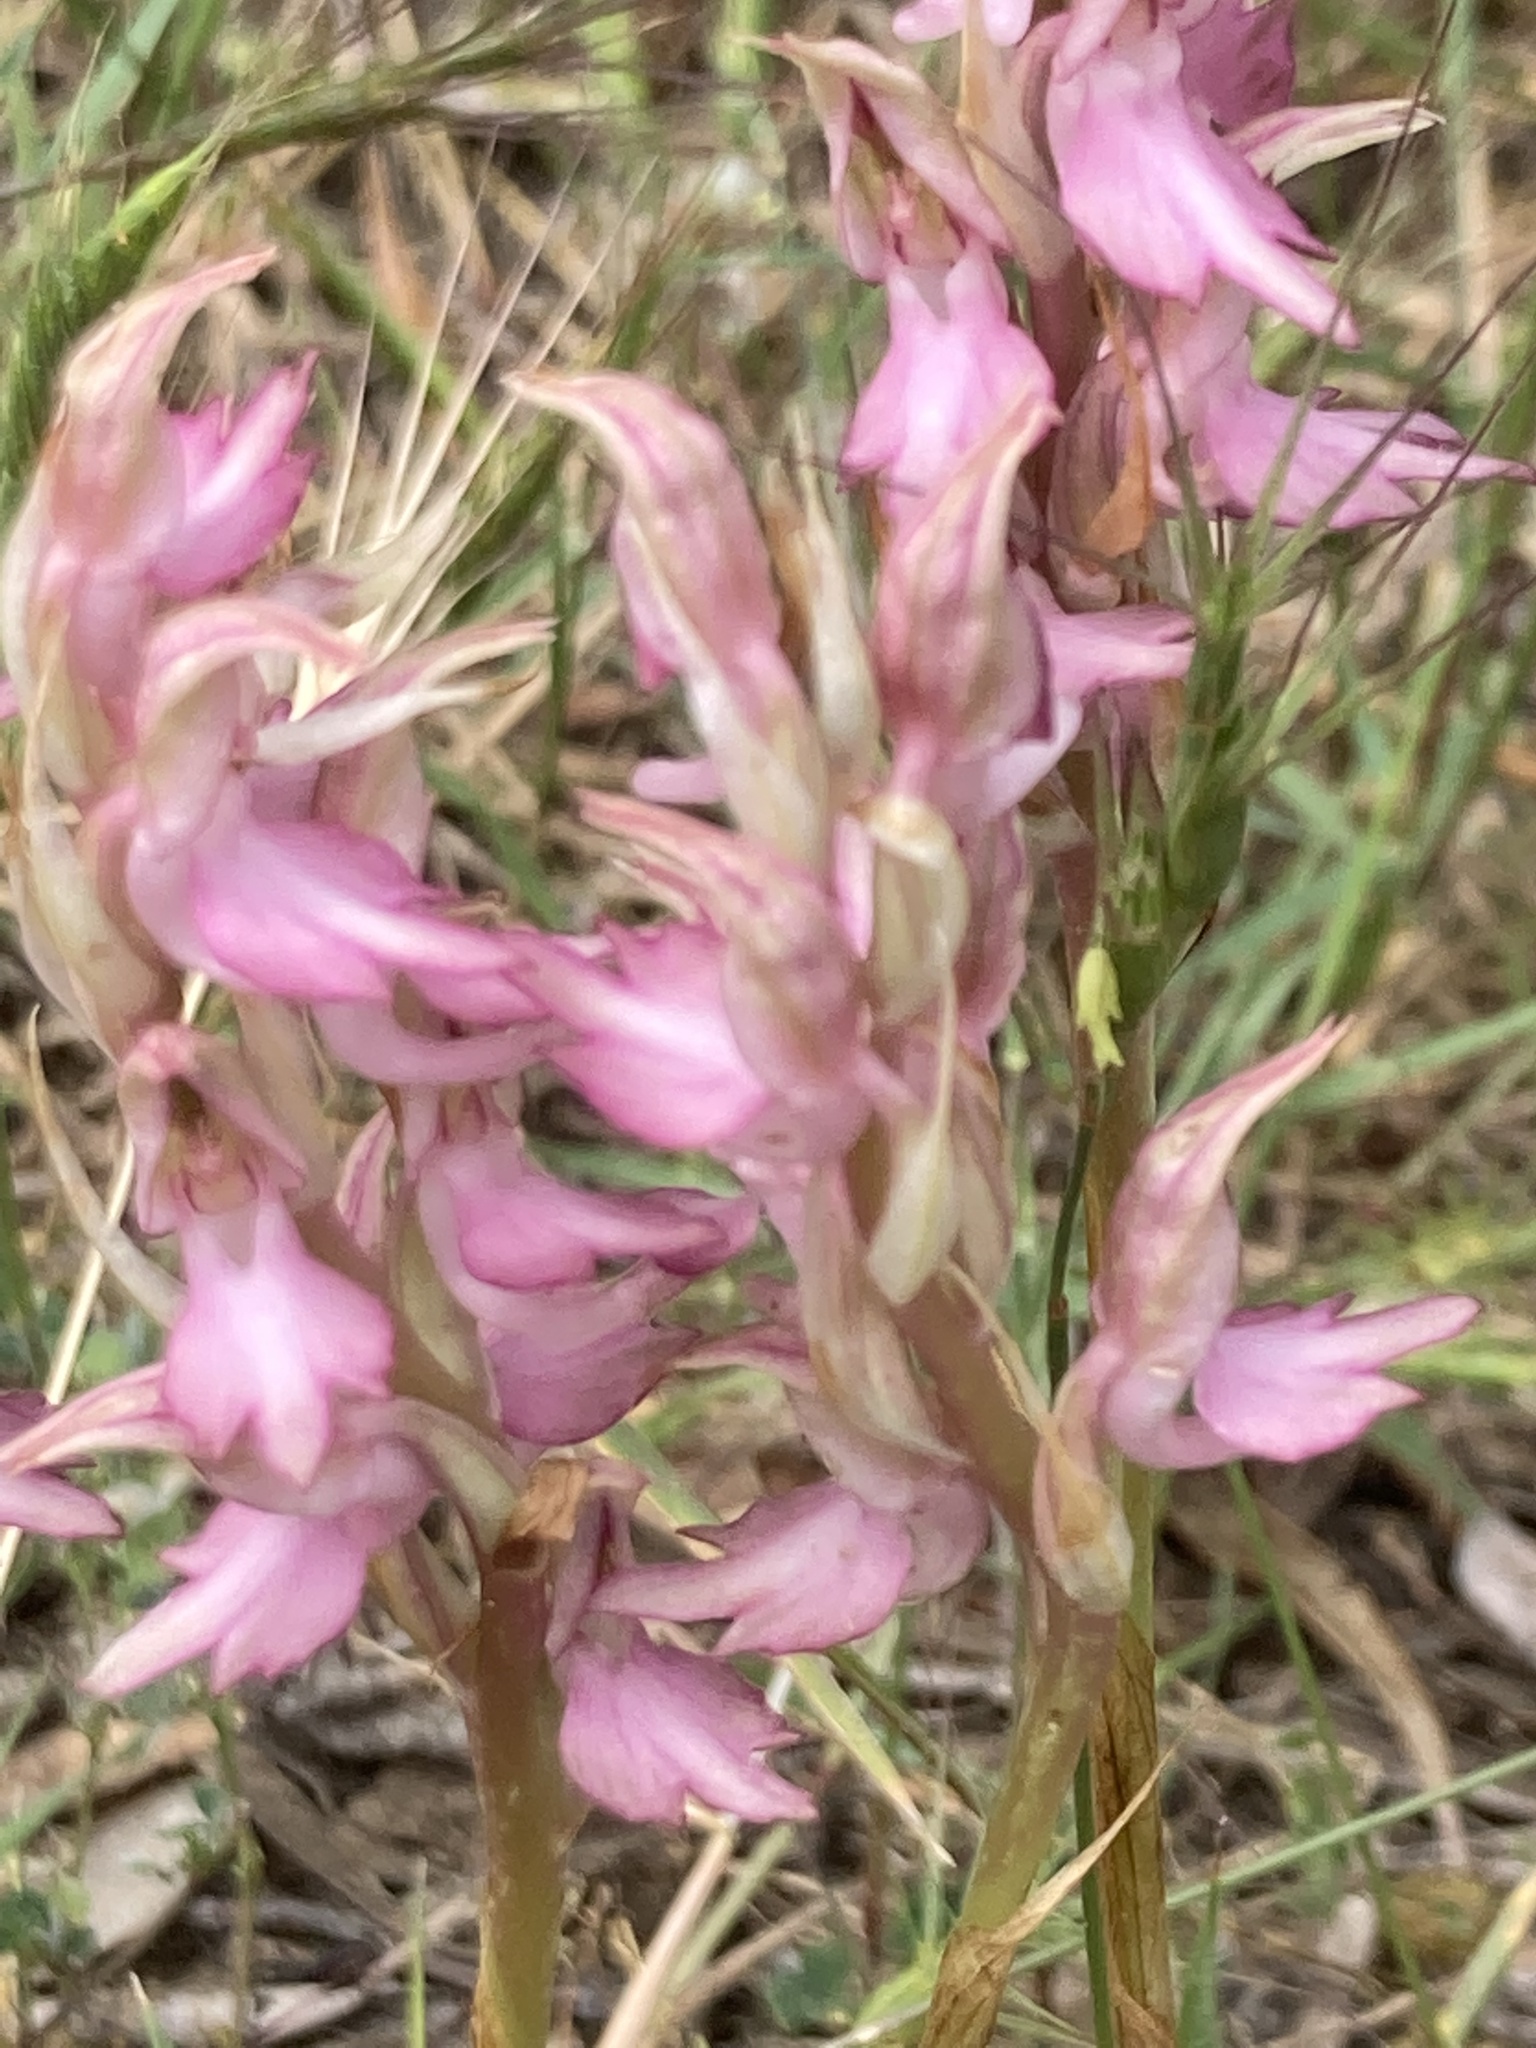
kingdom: Plantae
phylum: Tracheophyta
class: Liliopsida
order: Asparagales
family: Orchidaceae
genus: Anacamptis
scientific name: Anacamptis sancta
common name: Holy orchid
